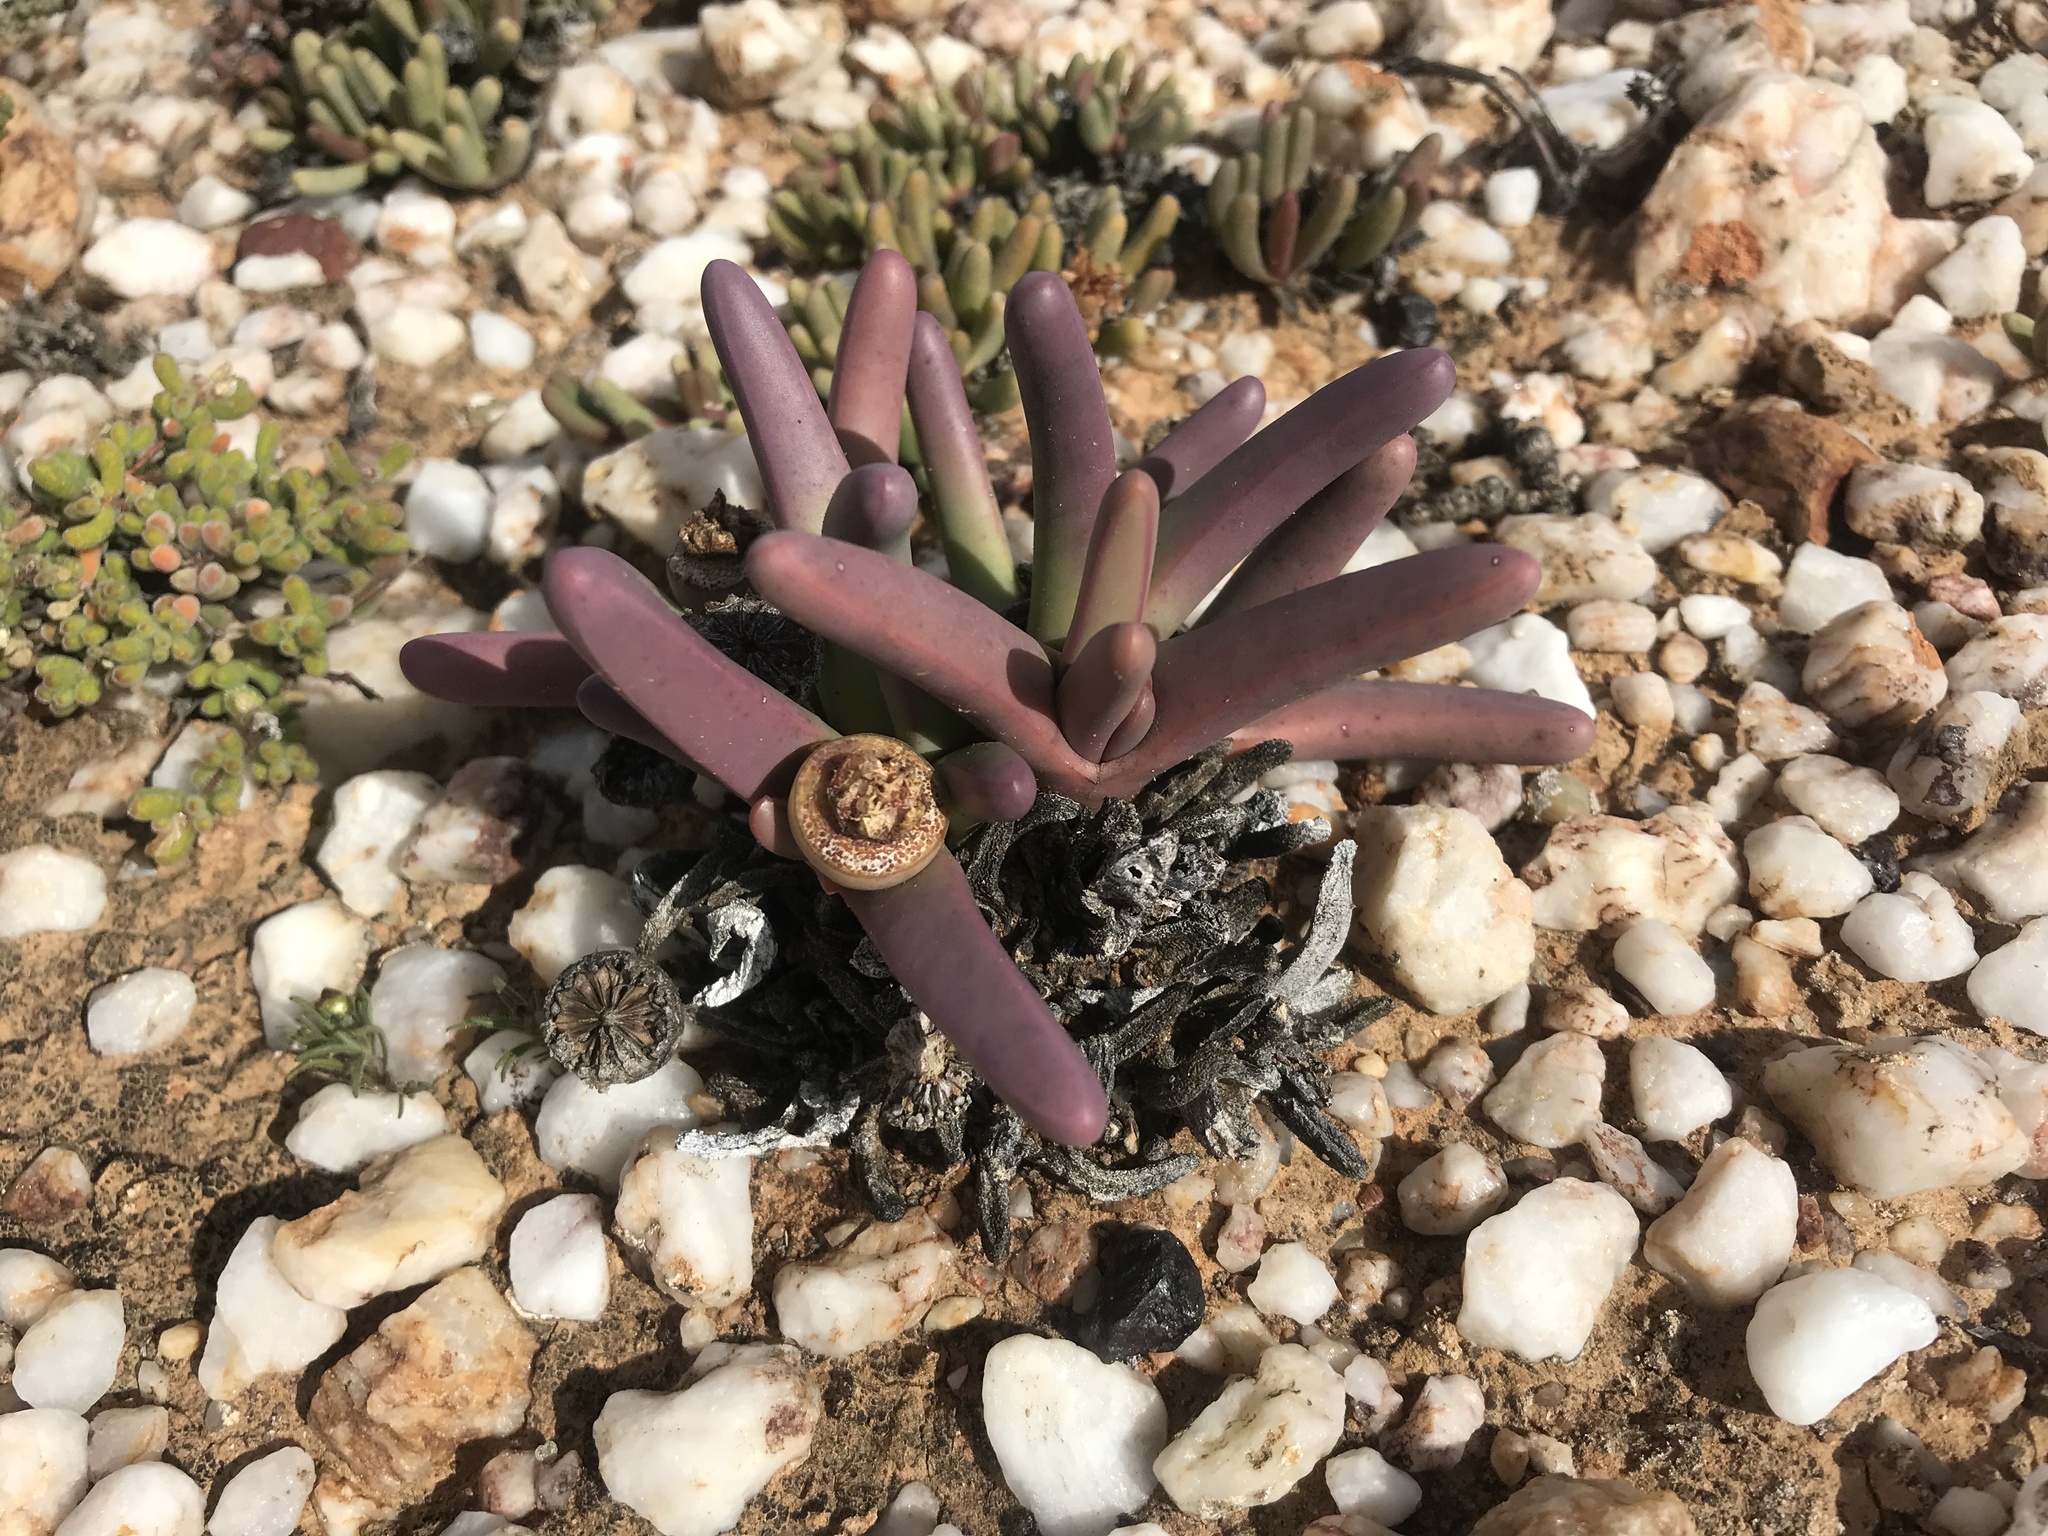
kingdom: Plantae
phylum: Tracheophyta
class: Magnoliopsida
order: Caryophyllales
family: Aizoaceae
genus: Argyroderma
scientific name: Argyroderma fissum
